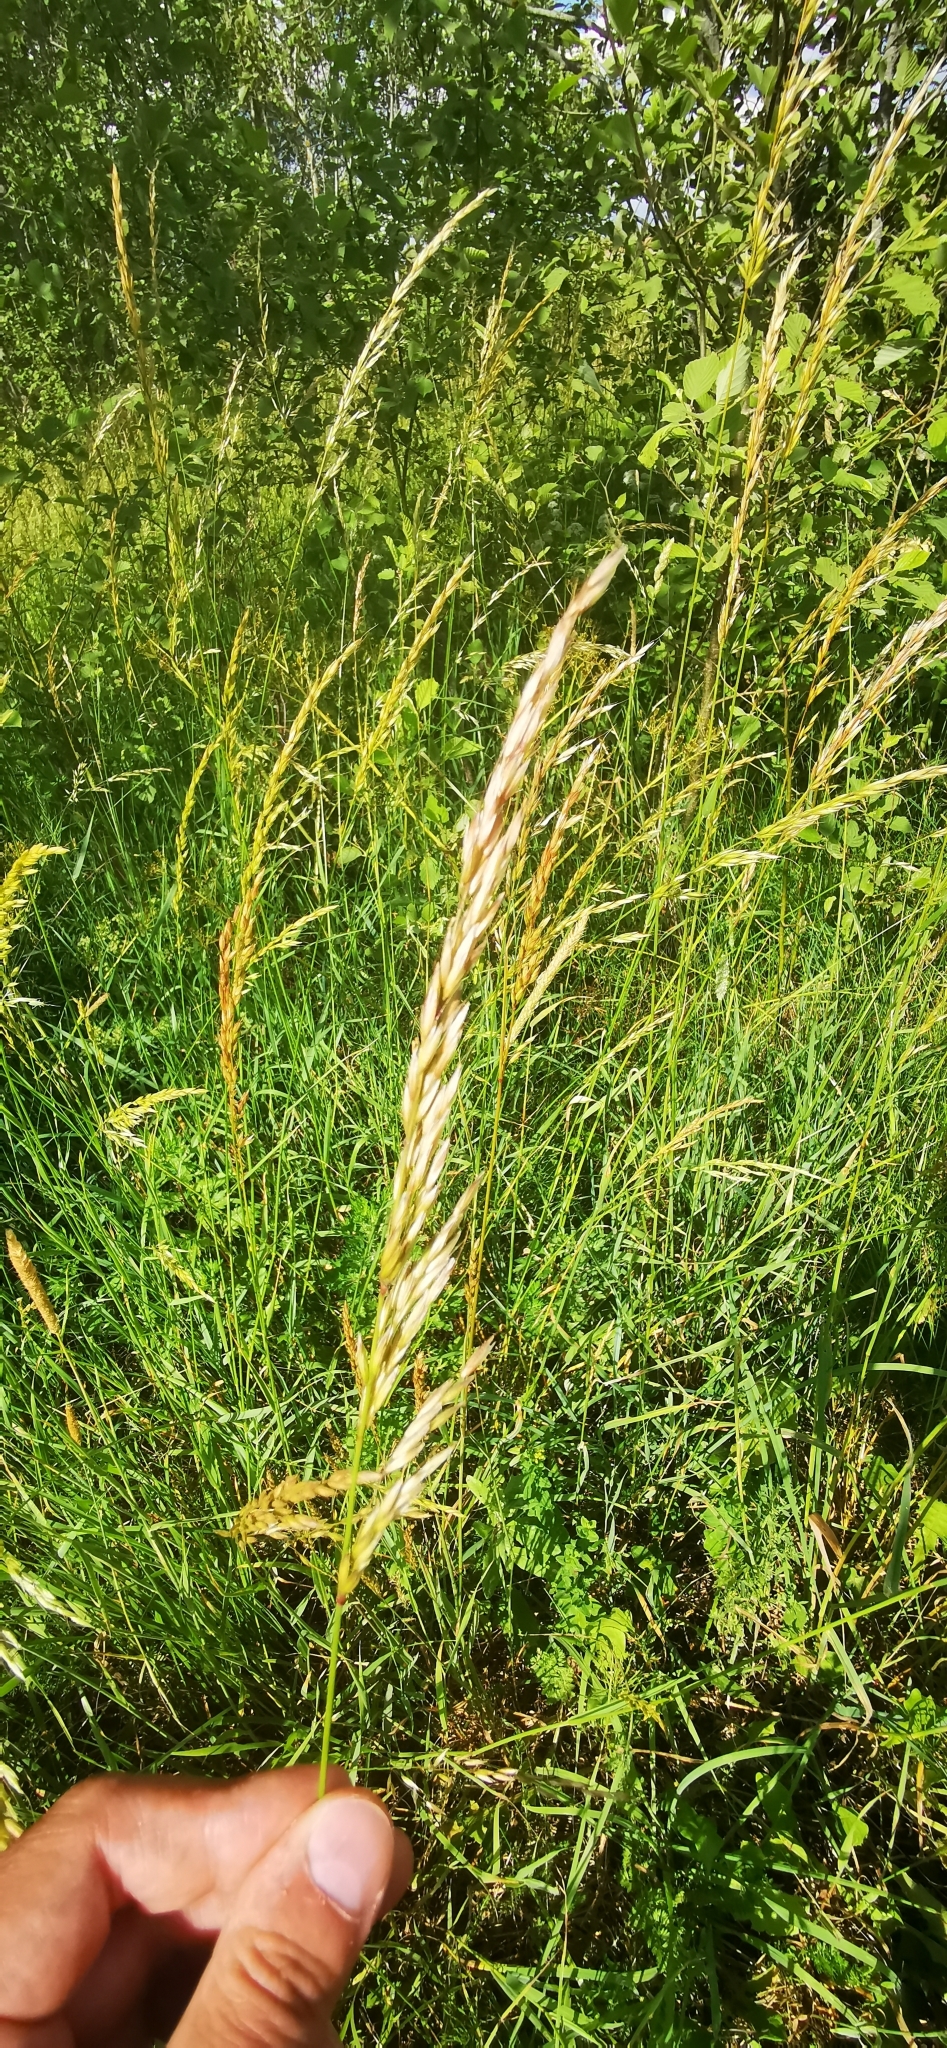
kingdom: Plantae
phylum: Tracheophyta
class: Liliopsida
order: Poales
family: Poaceae
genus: Arrhenatherum
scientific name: Arrhenatherum elatius
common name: Tall oatgrass
